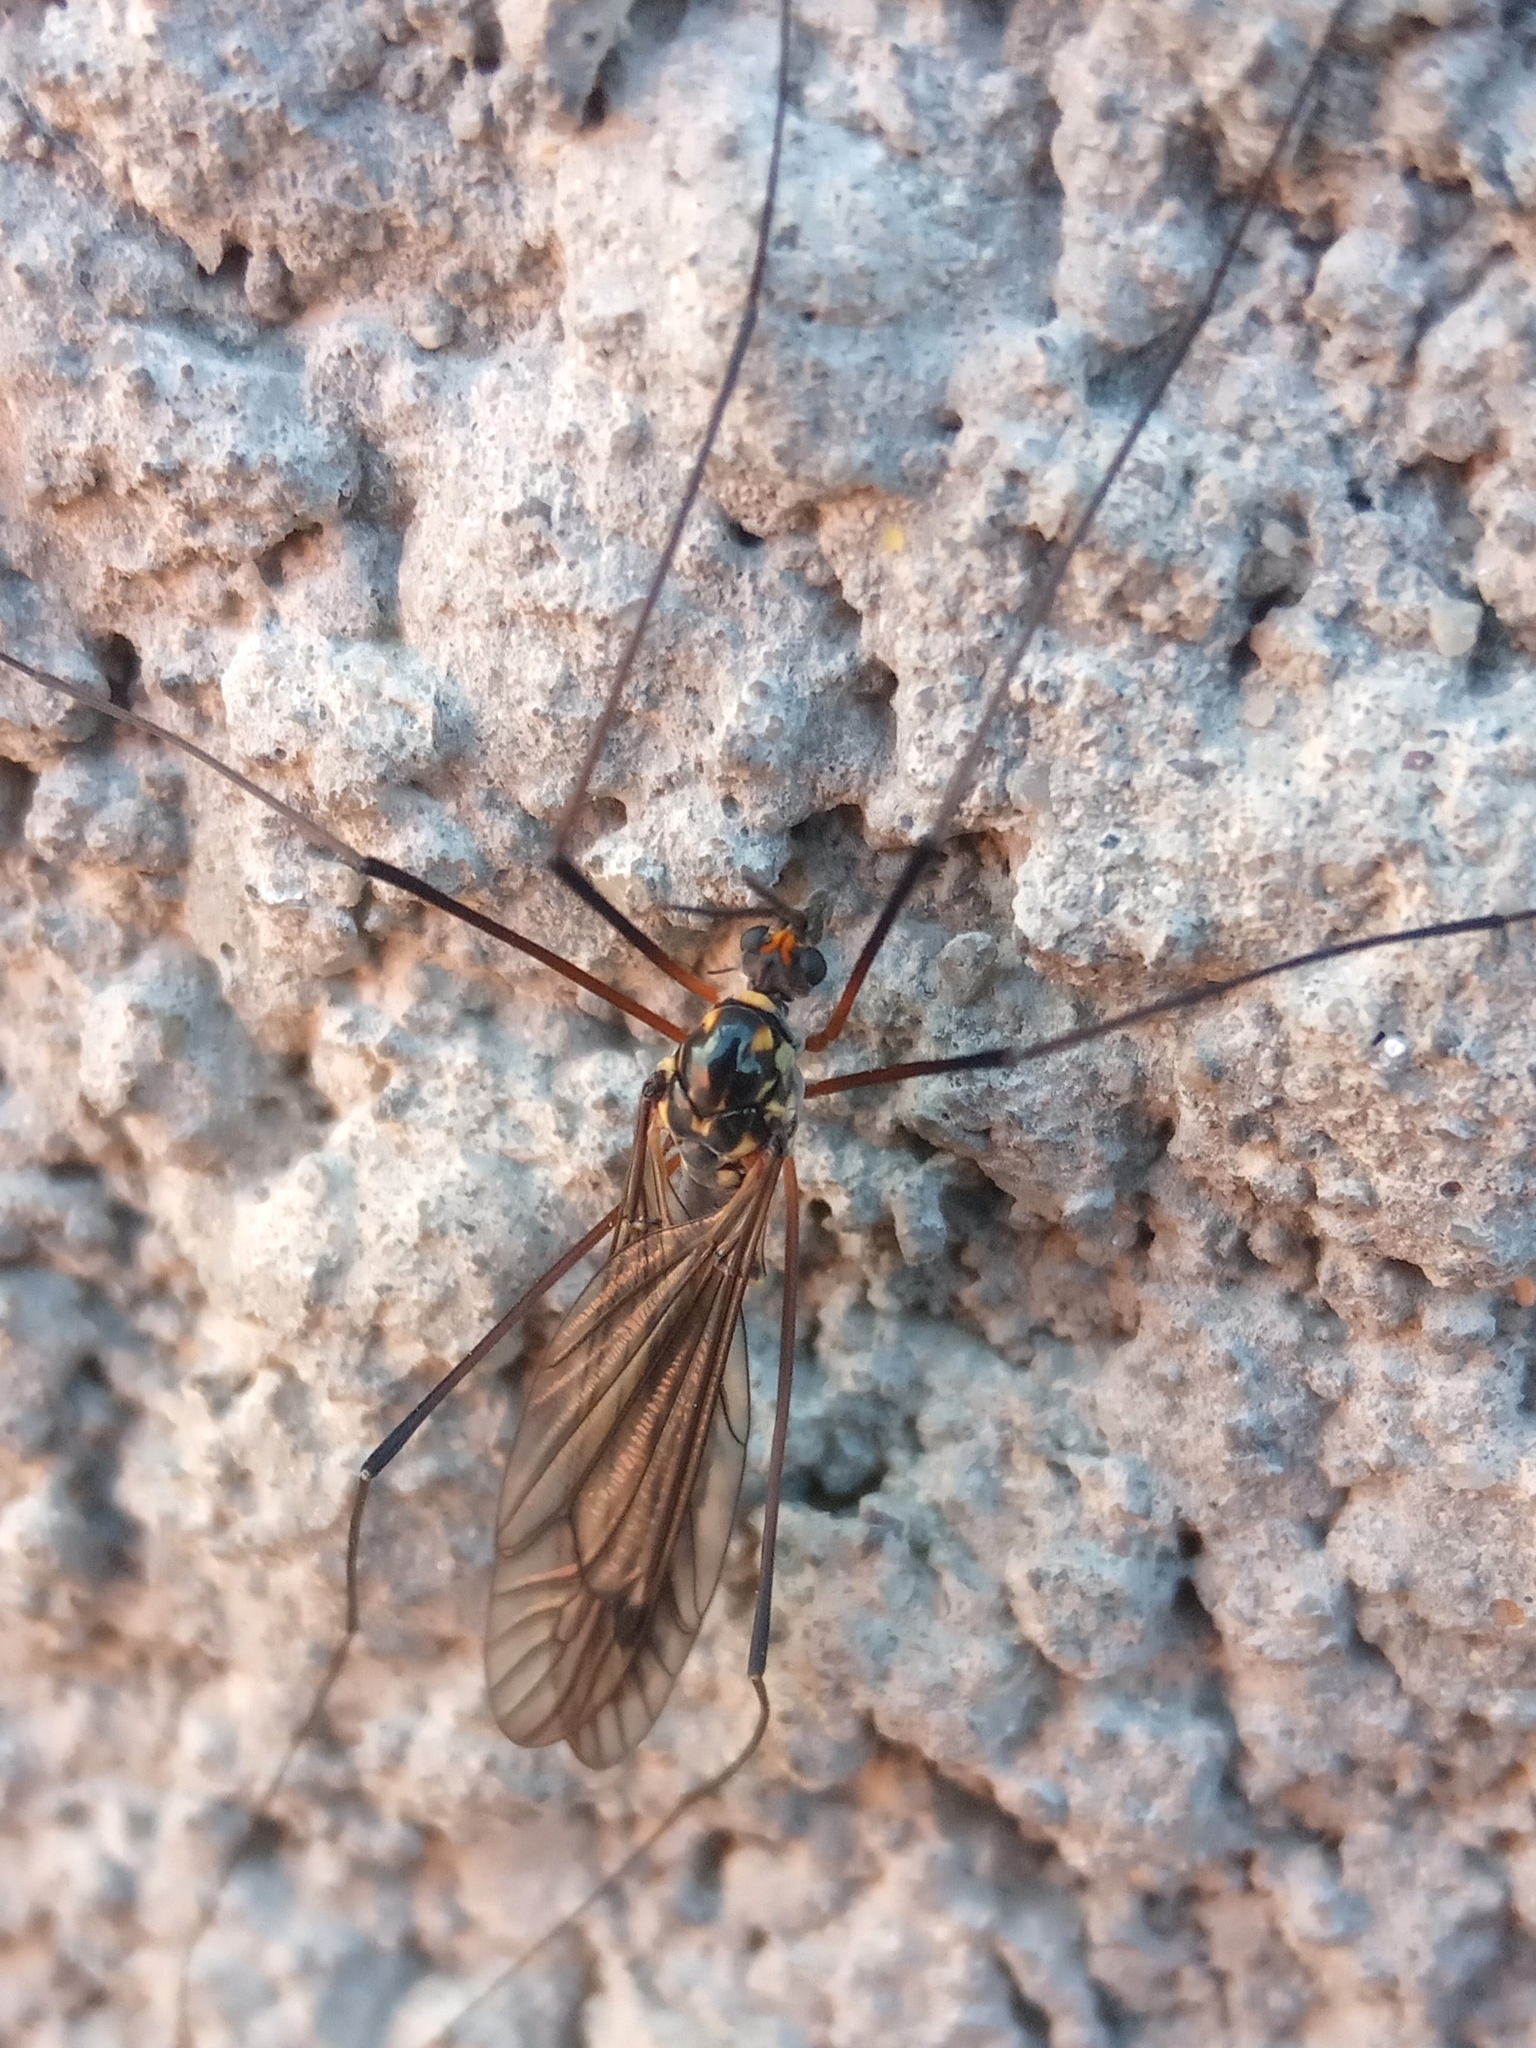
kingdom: Animalia
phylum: Arthropoda
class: Insecta
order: Diptera
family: Tipulidae
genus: Nephrotoma
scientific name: Nephrotoma
